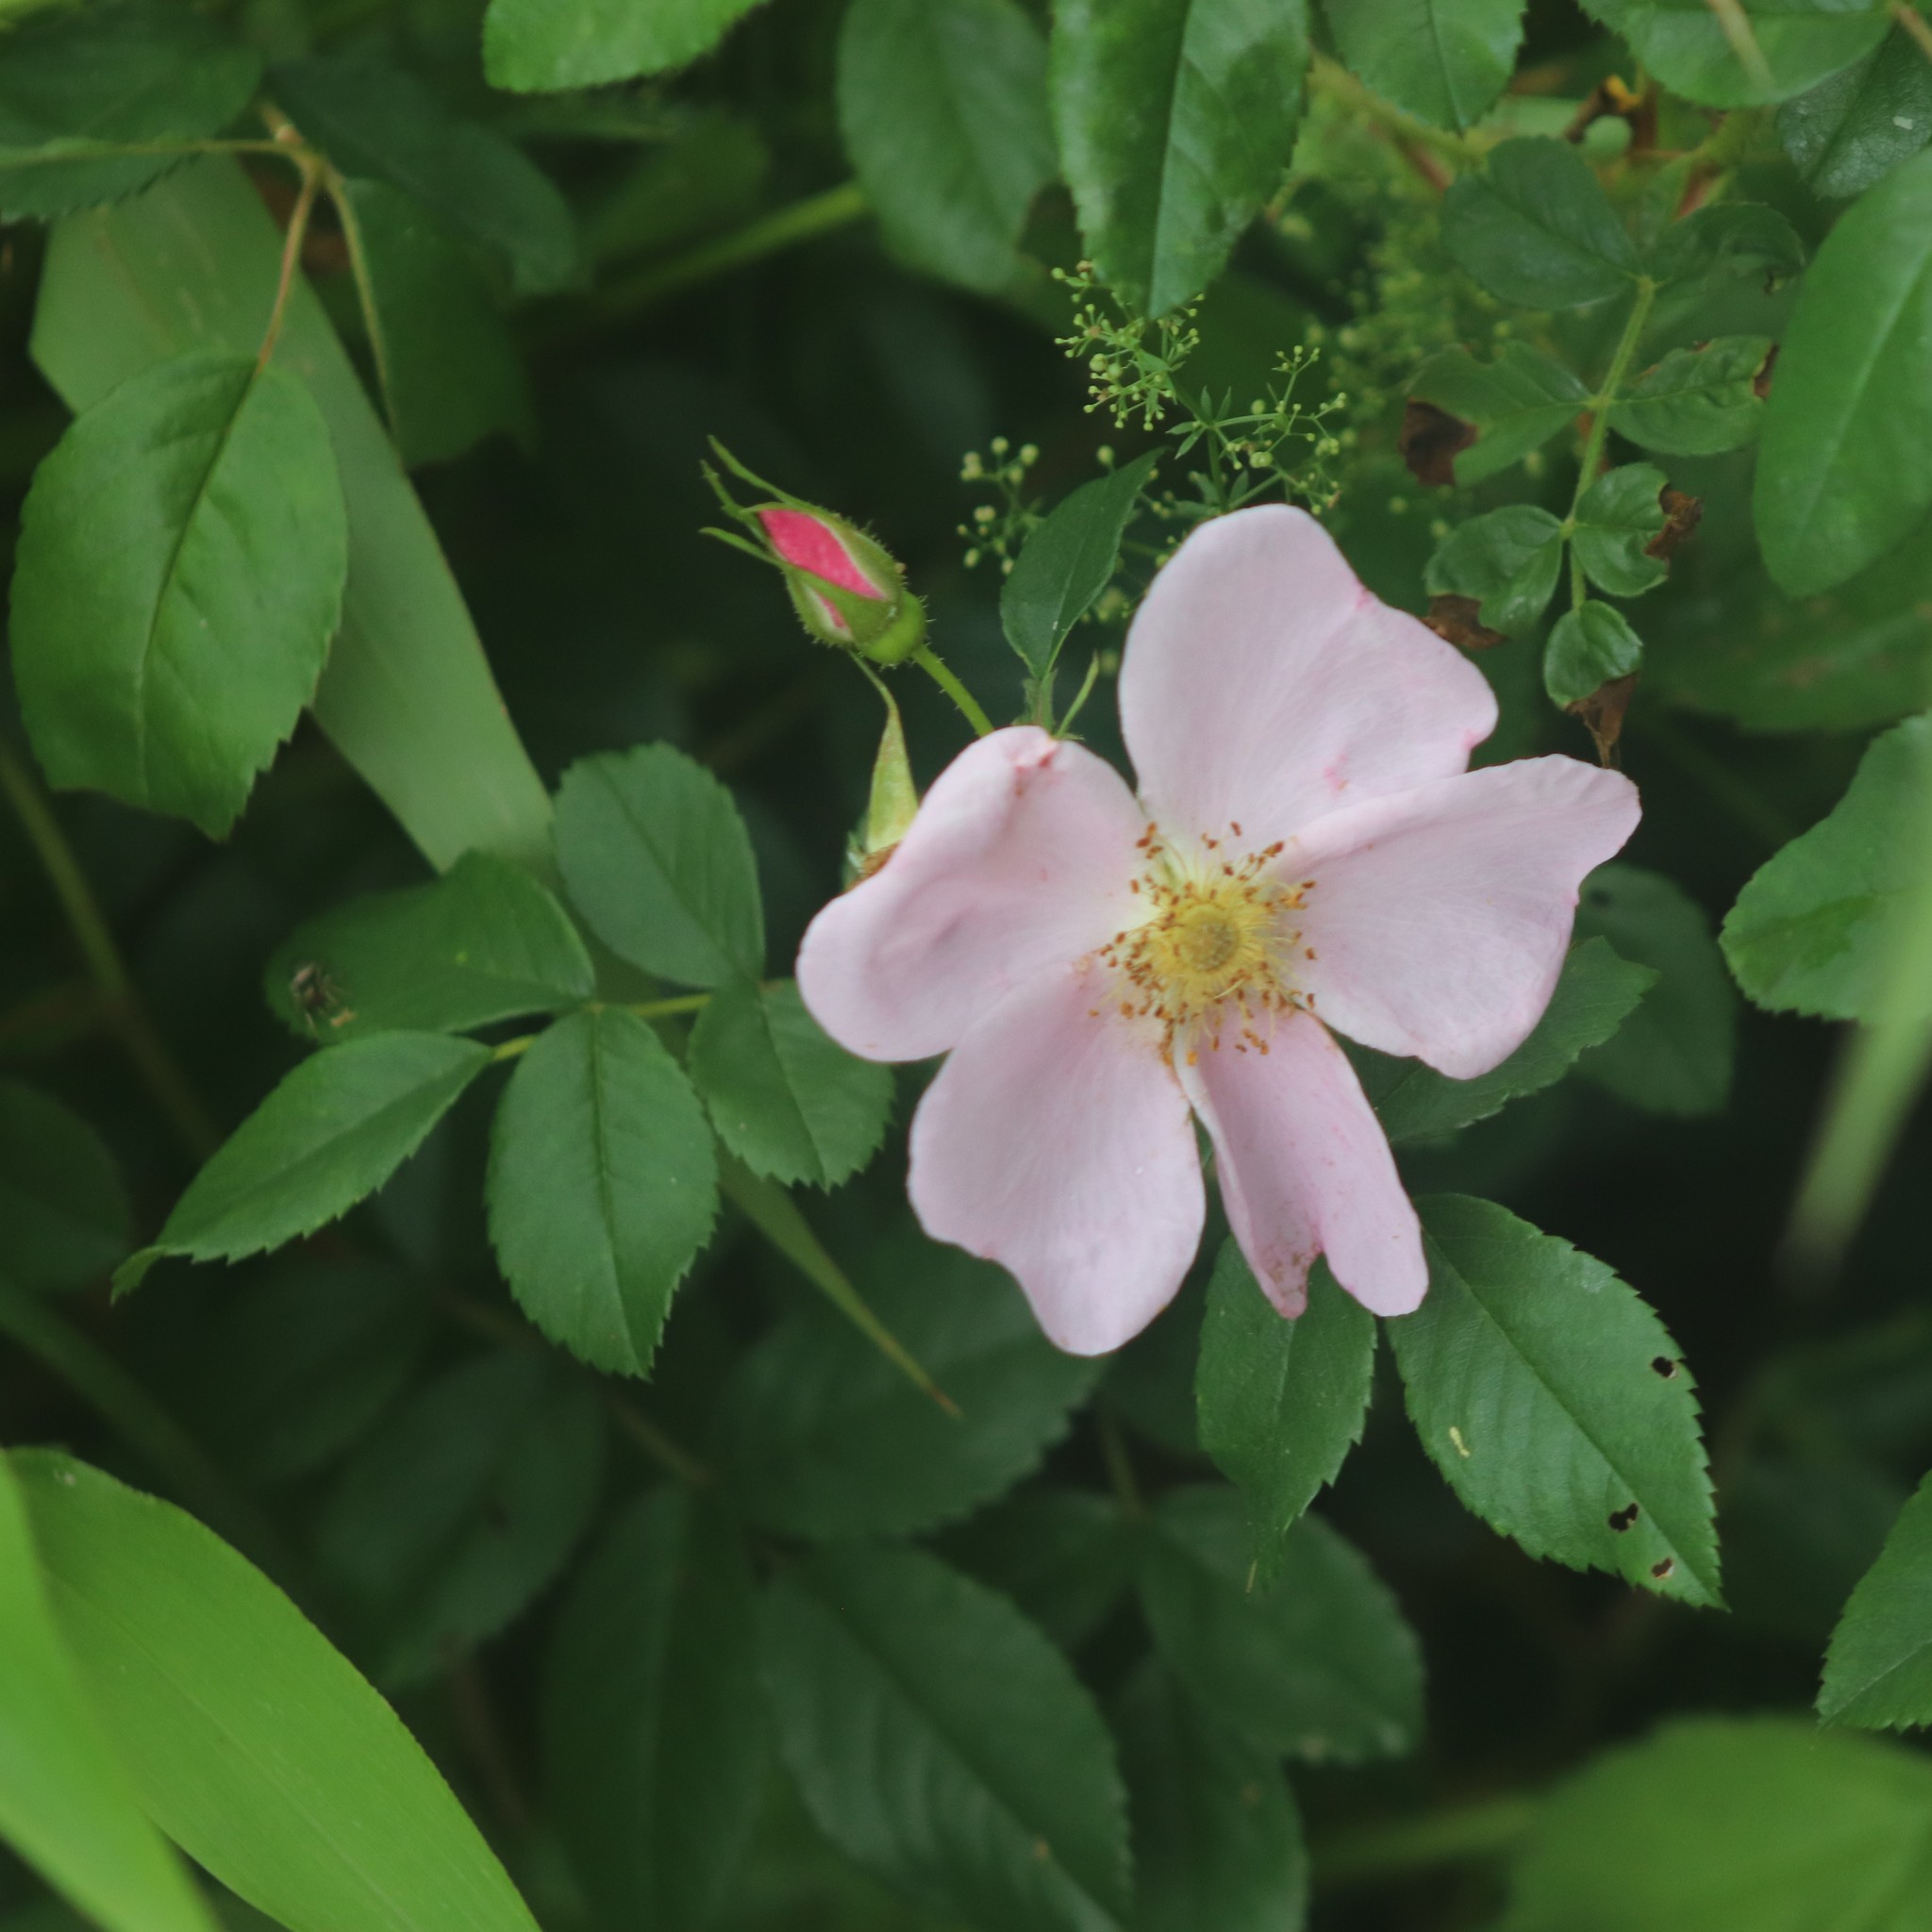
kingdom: Plantae
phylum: Tracheophyta
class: Magnoliopsida
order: Rosales
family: Rosaceae
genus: Rosa
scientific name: Rosa palustris
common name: Swamp rose
